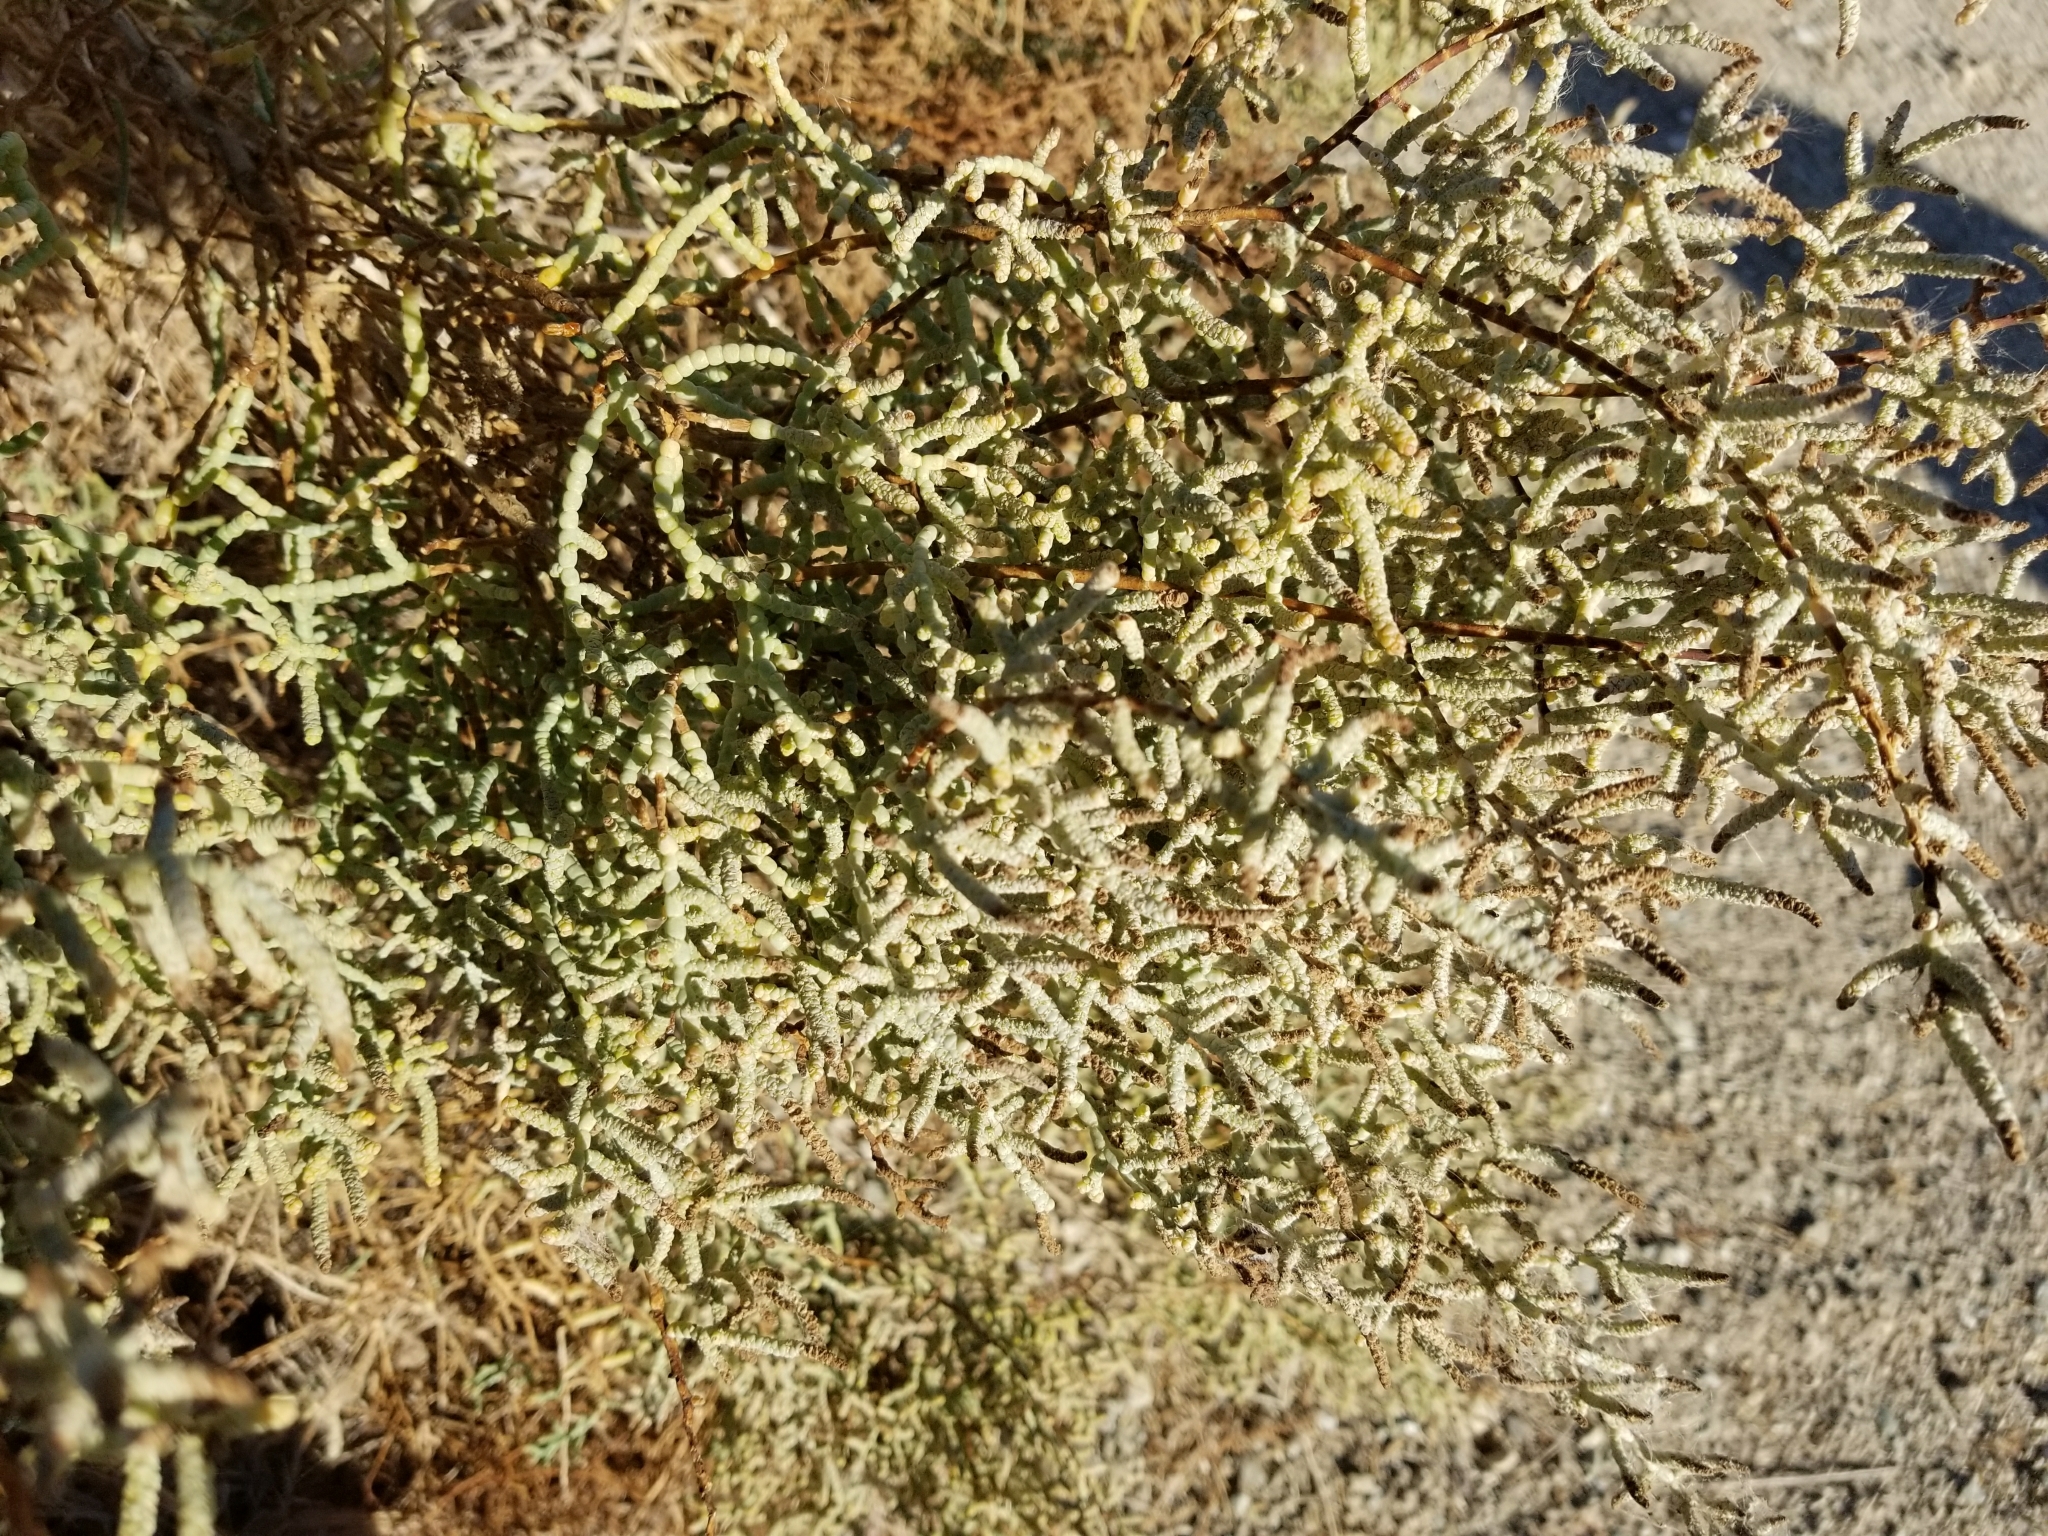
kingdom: Plantae
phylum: Tracheophyta
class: Magnoliopsida
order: Caryophyllales
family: Amaranthaceae
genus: Allenrolfea
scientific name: Allenrolfea occidentalis
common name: Iodine-bush
